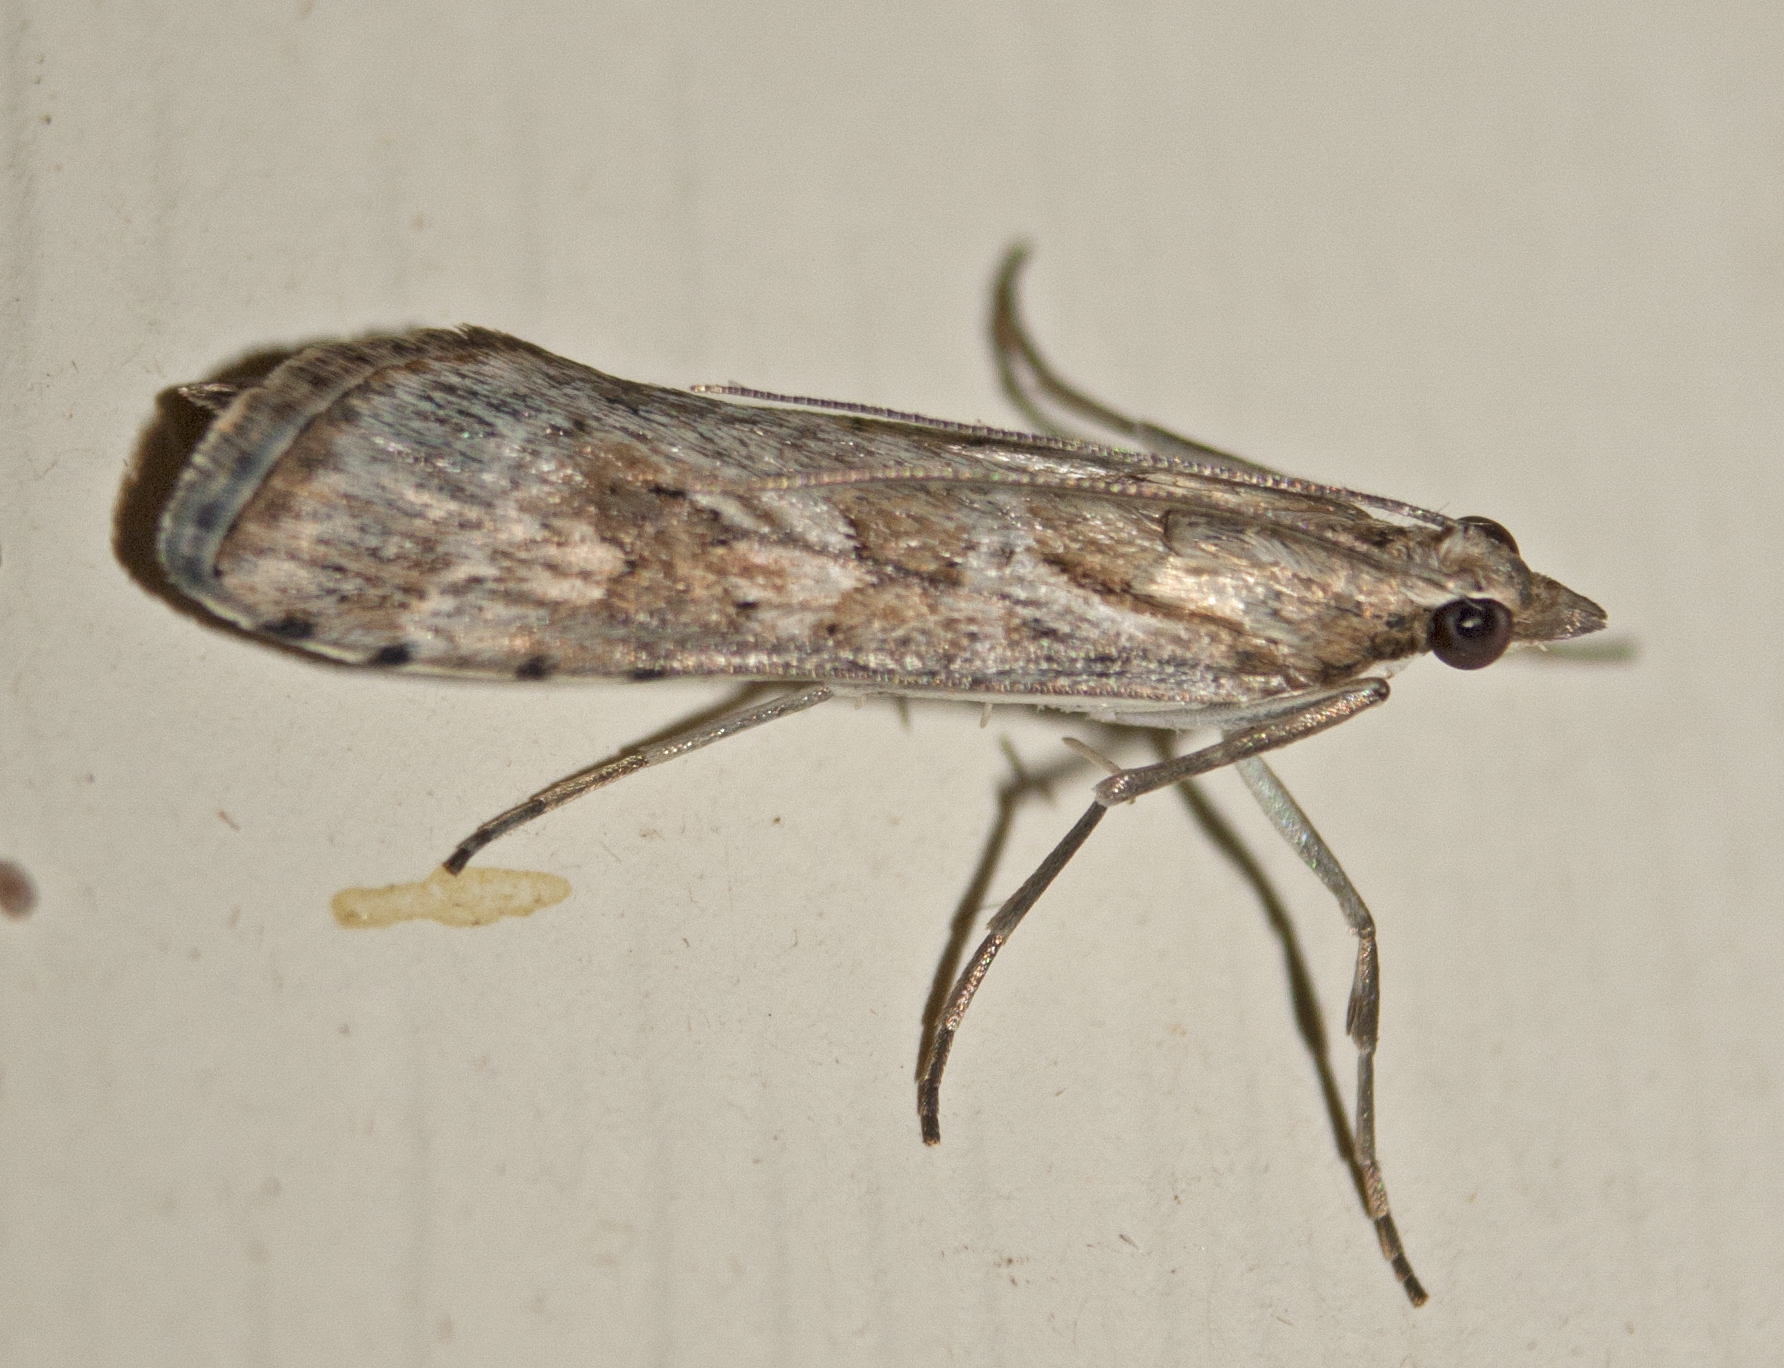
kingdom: Animalia
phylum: Arthropoda
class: Insecta
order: Lepidoptera
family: Crambidae
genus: Nomophila
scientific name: Nomophila corticalis
